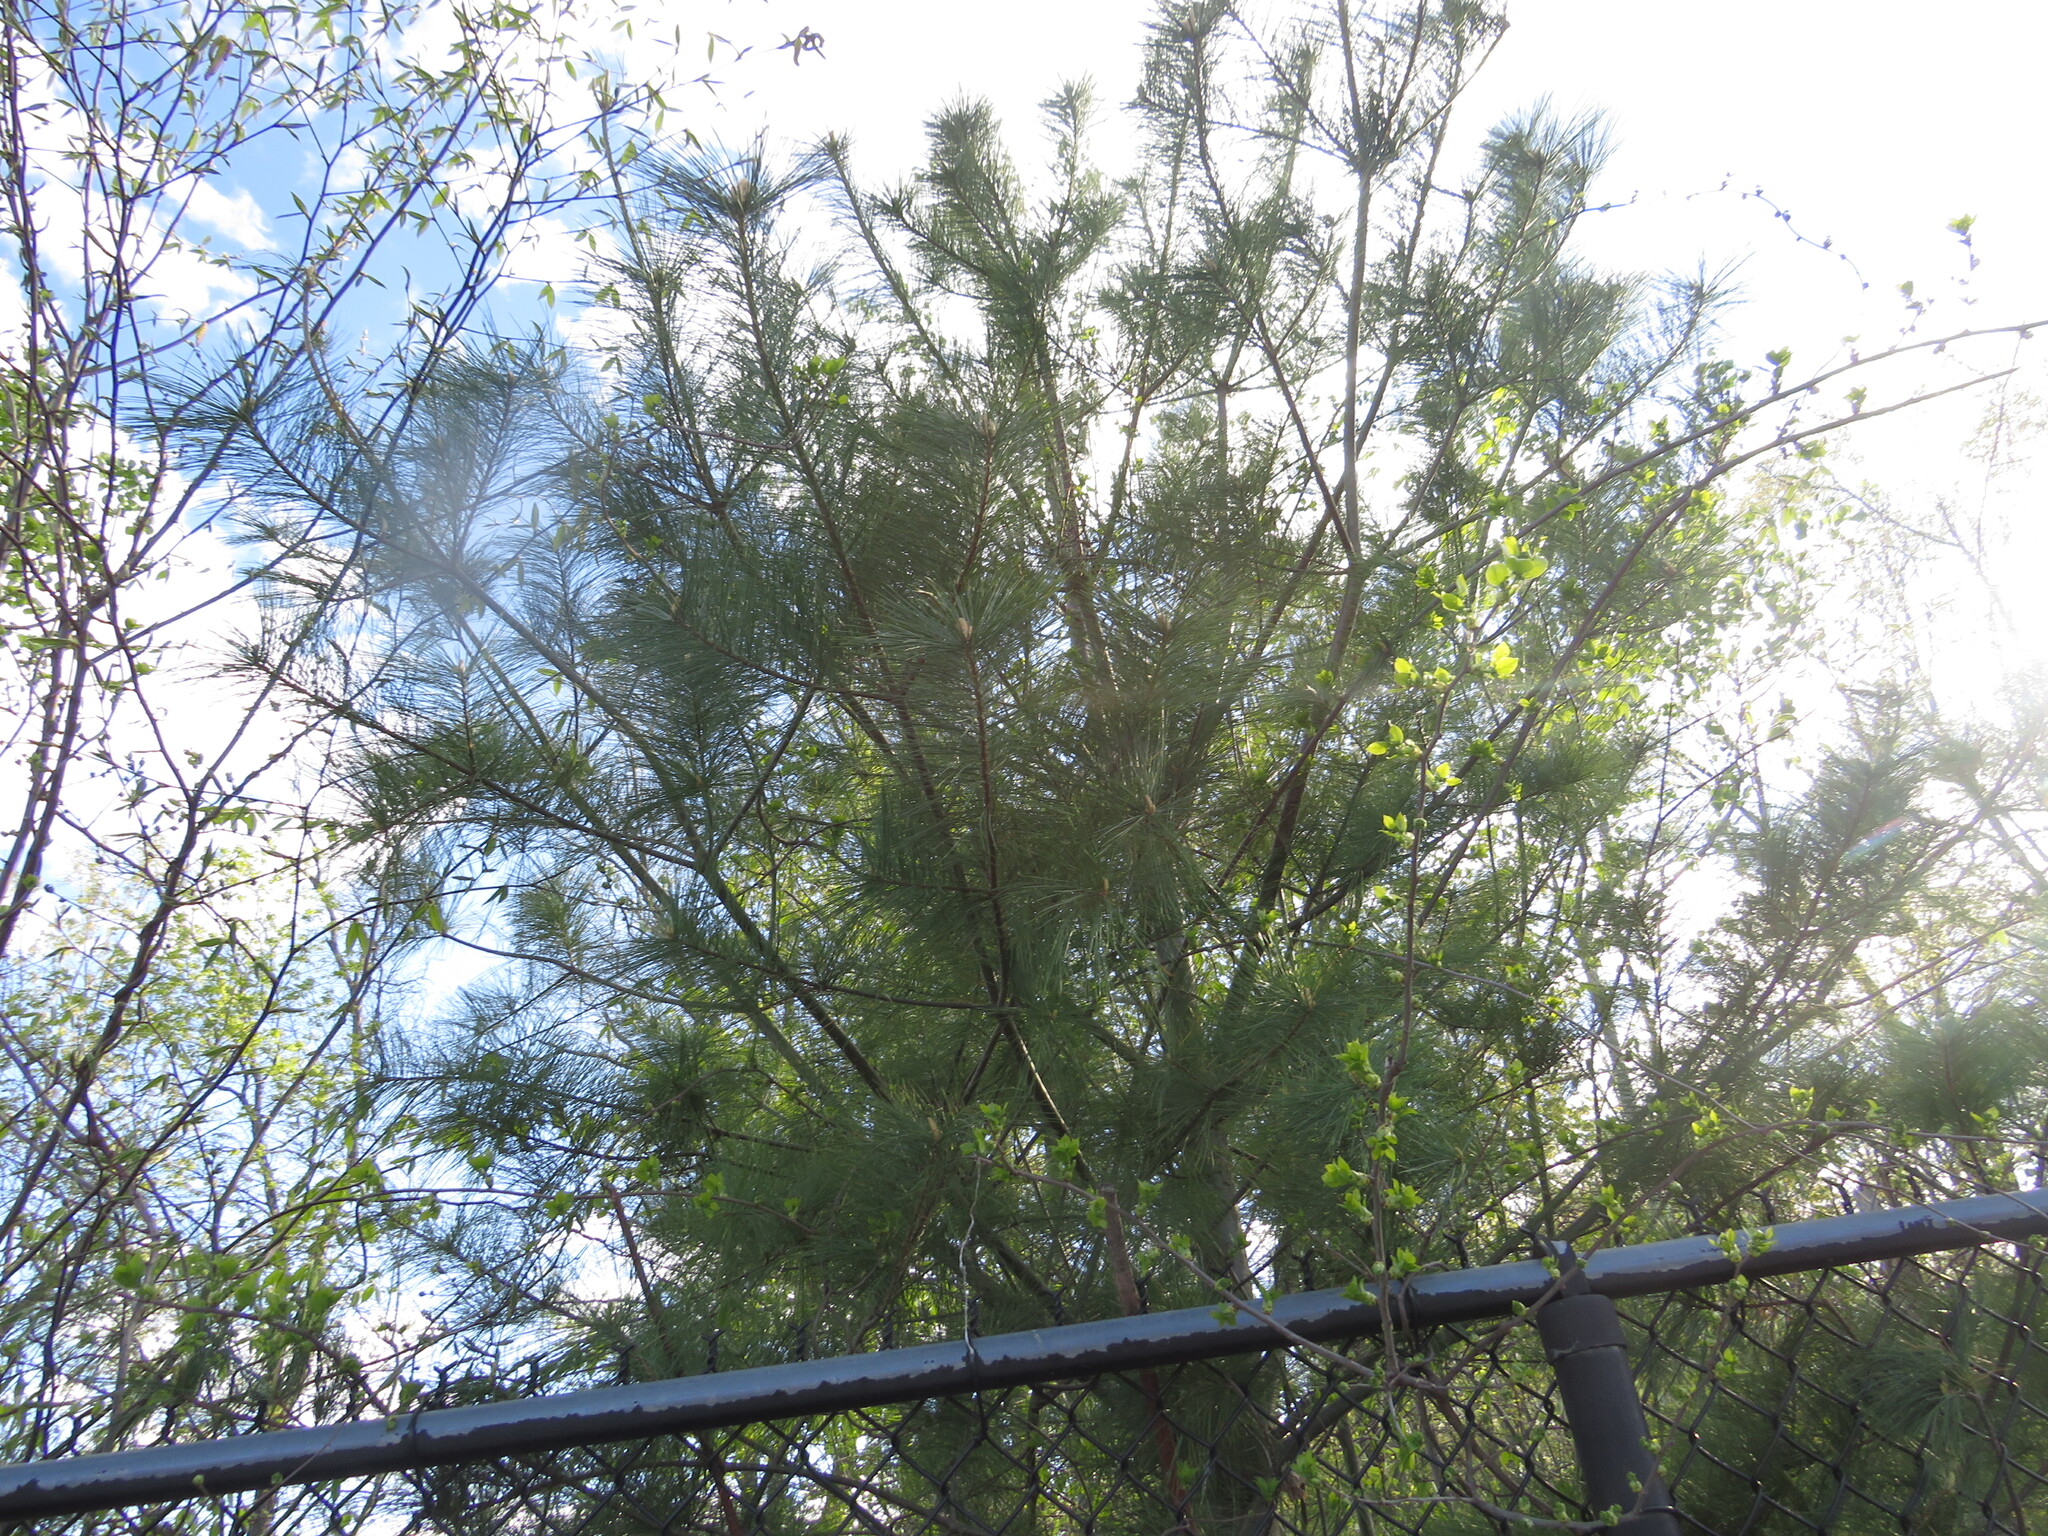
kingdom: Plantae
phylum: Tracheophyta
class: Pinopsida
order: Pinales
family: Pinaceae
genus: Pinus
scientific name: Pinus strobus
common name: Weymouth pine
